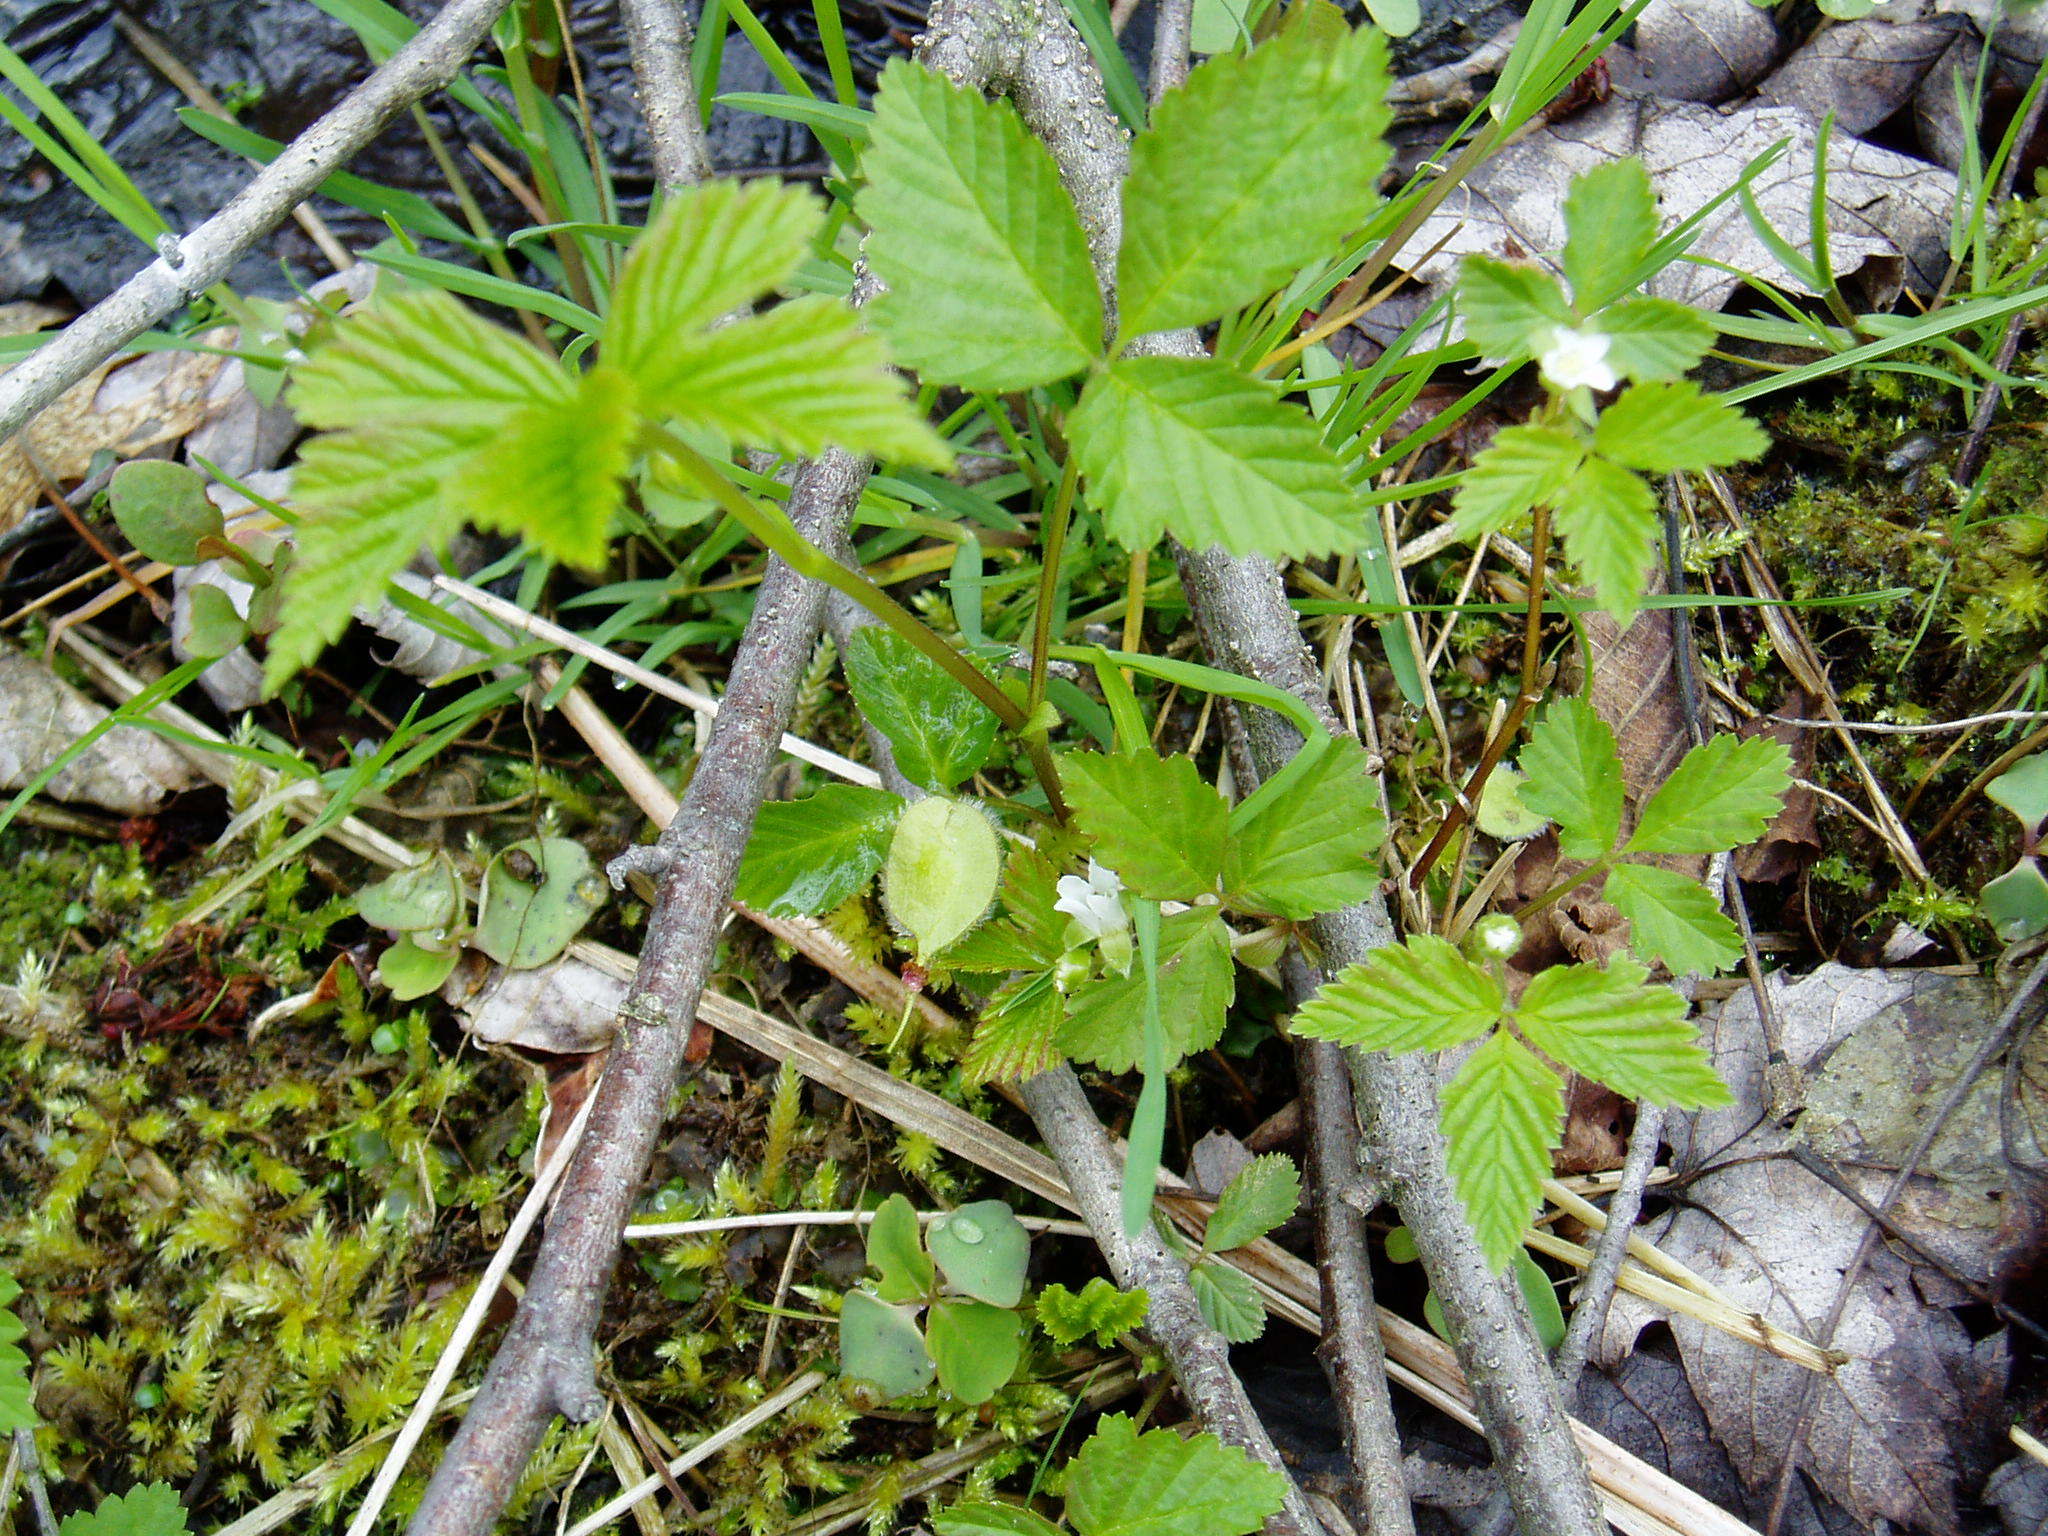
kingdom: Plantae
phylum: Tracheophyta
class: Magnoliopsida
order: Rosales
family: Rosaceae
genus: Rubus
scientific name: Rubus pubescens
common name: Dwarf raspberry
